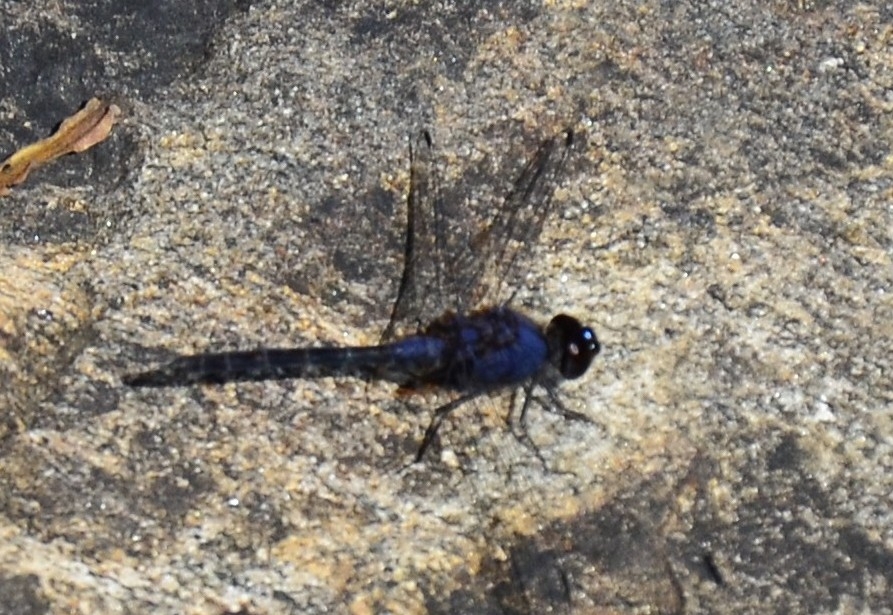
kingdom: Animalia
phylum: Arthropoda
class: Insecta
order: Odonata
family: Libellulidae
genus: Trithemis
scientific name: Trithemis festiva
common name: Indigo dropwing
